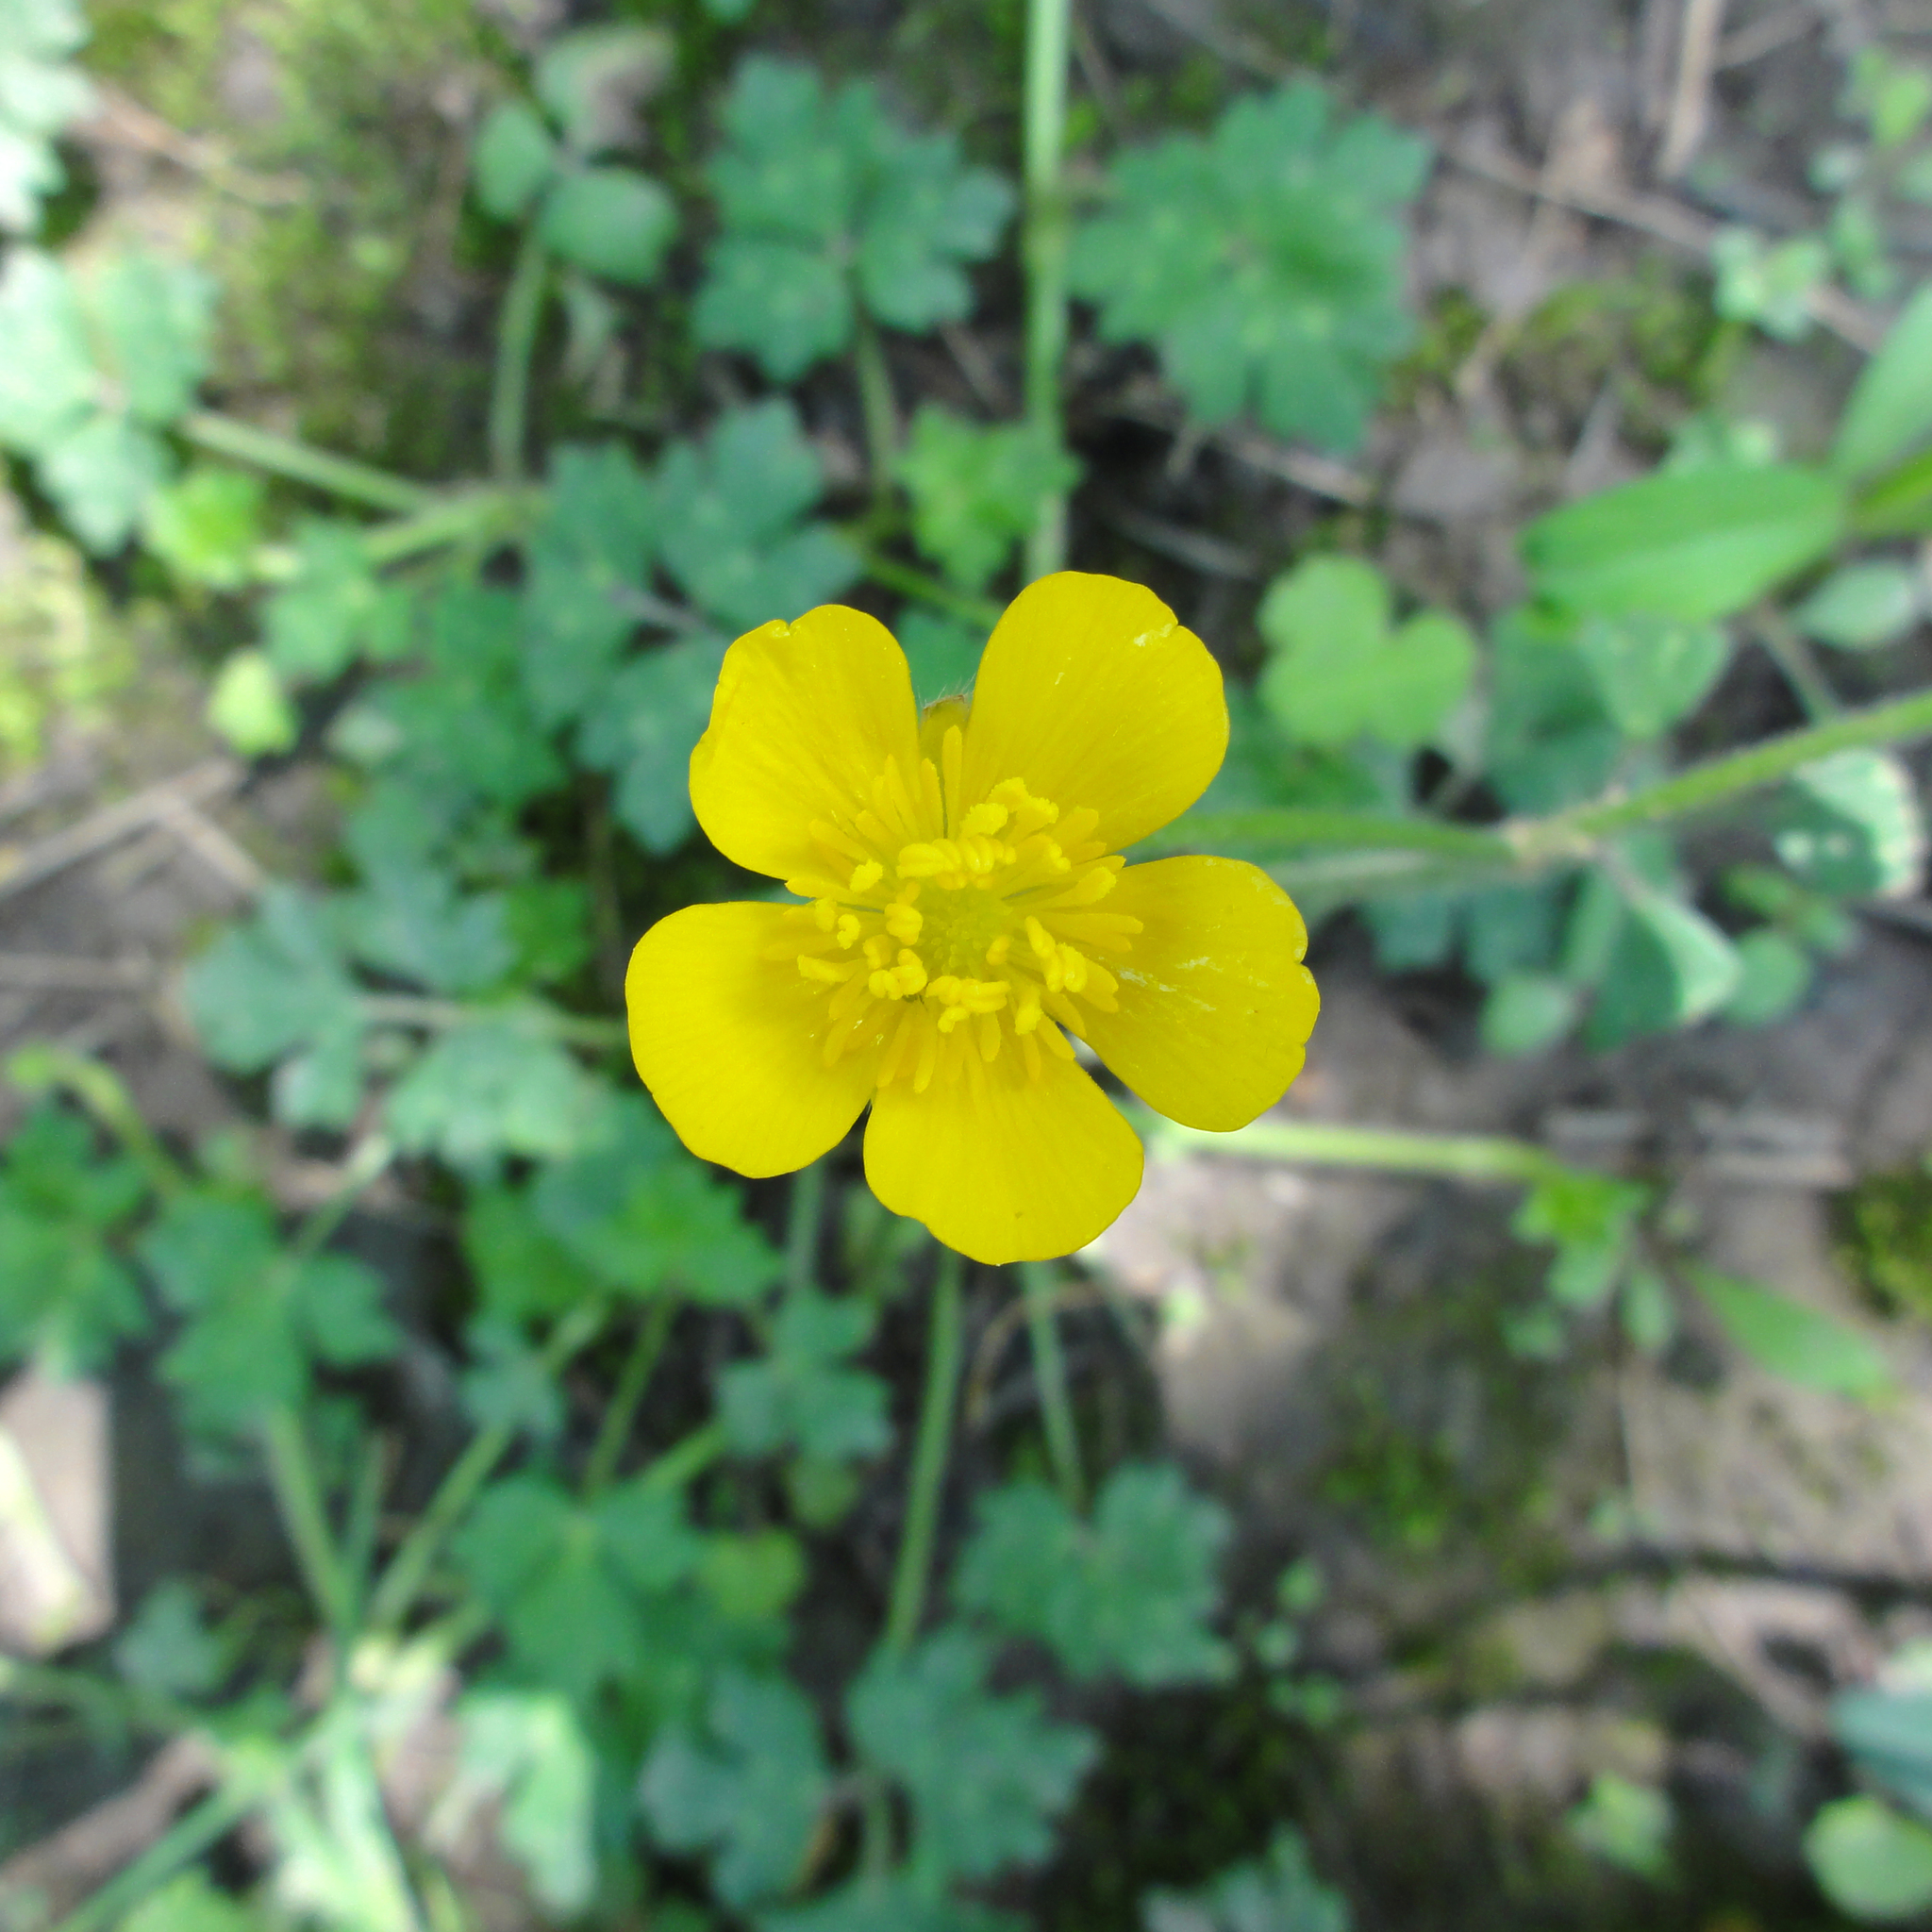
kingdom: Plantae
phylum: Tracheophyta
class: Magnoliopsida
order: Ranunculales
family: Ranunculaceae
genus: Ranunculus
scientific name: Ranunculus acris
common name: Meadow buttercup
